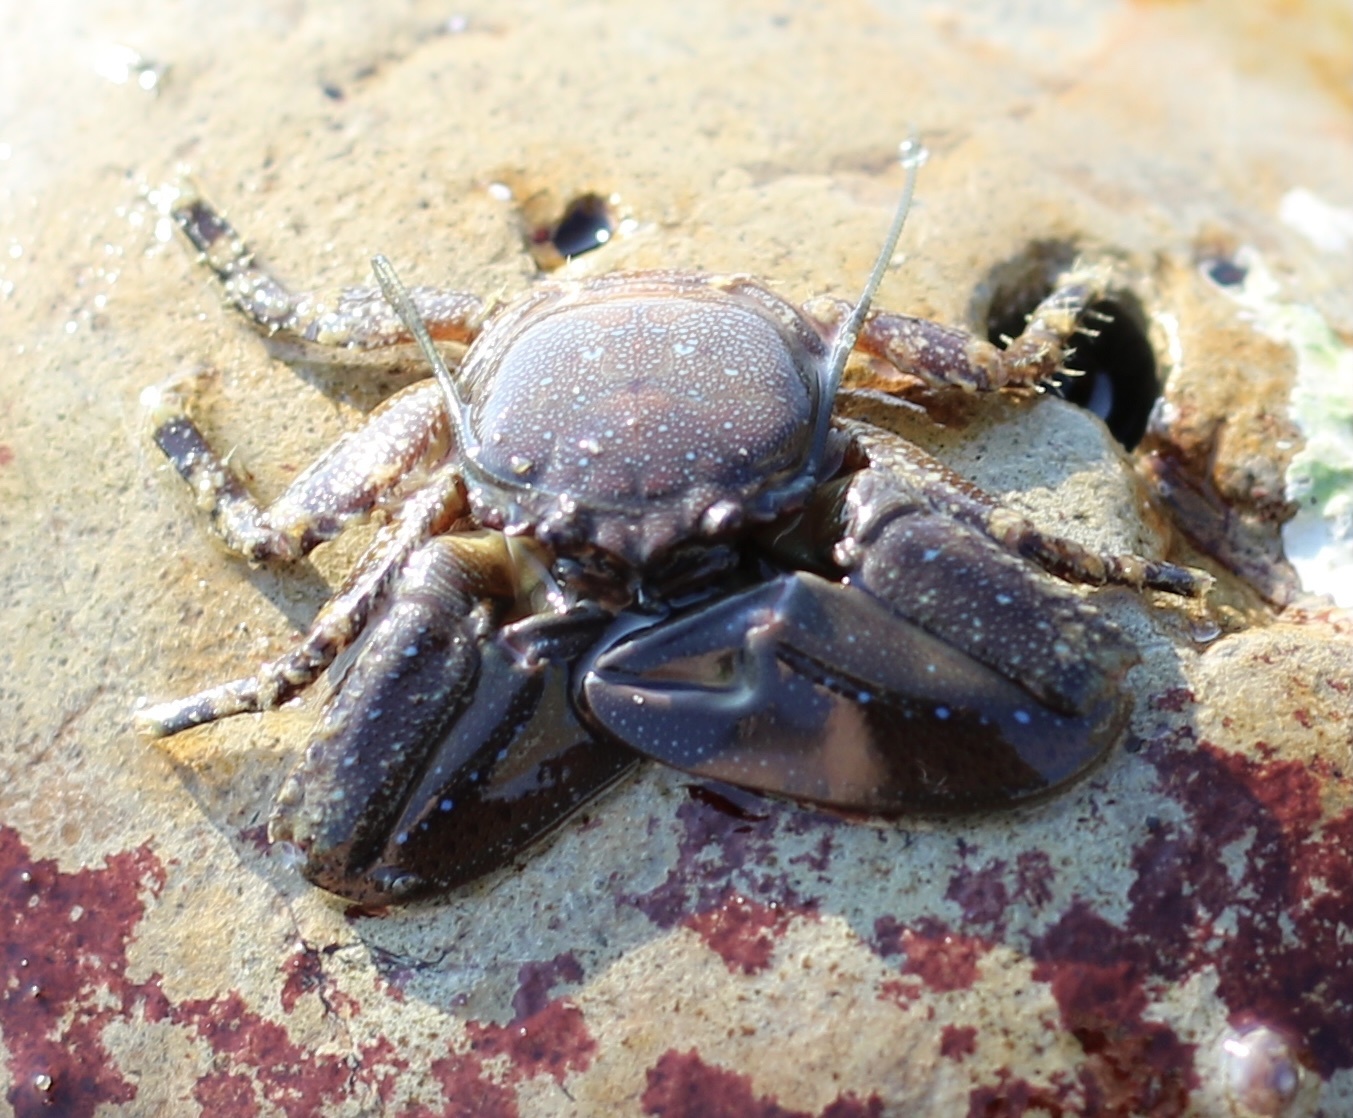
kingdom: Animalia
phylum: Arthropoda
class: Malacostraca
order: Decapoda
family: Porcellanidae
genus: Petrolisthes
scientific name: Petrolisthes manimaculis
